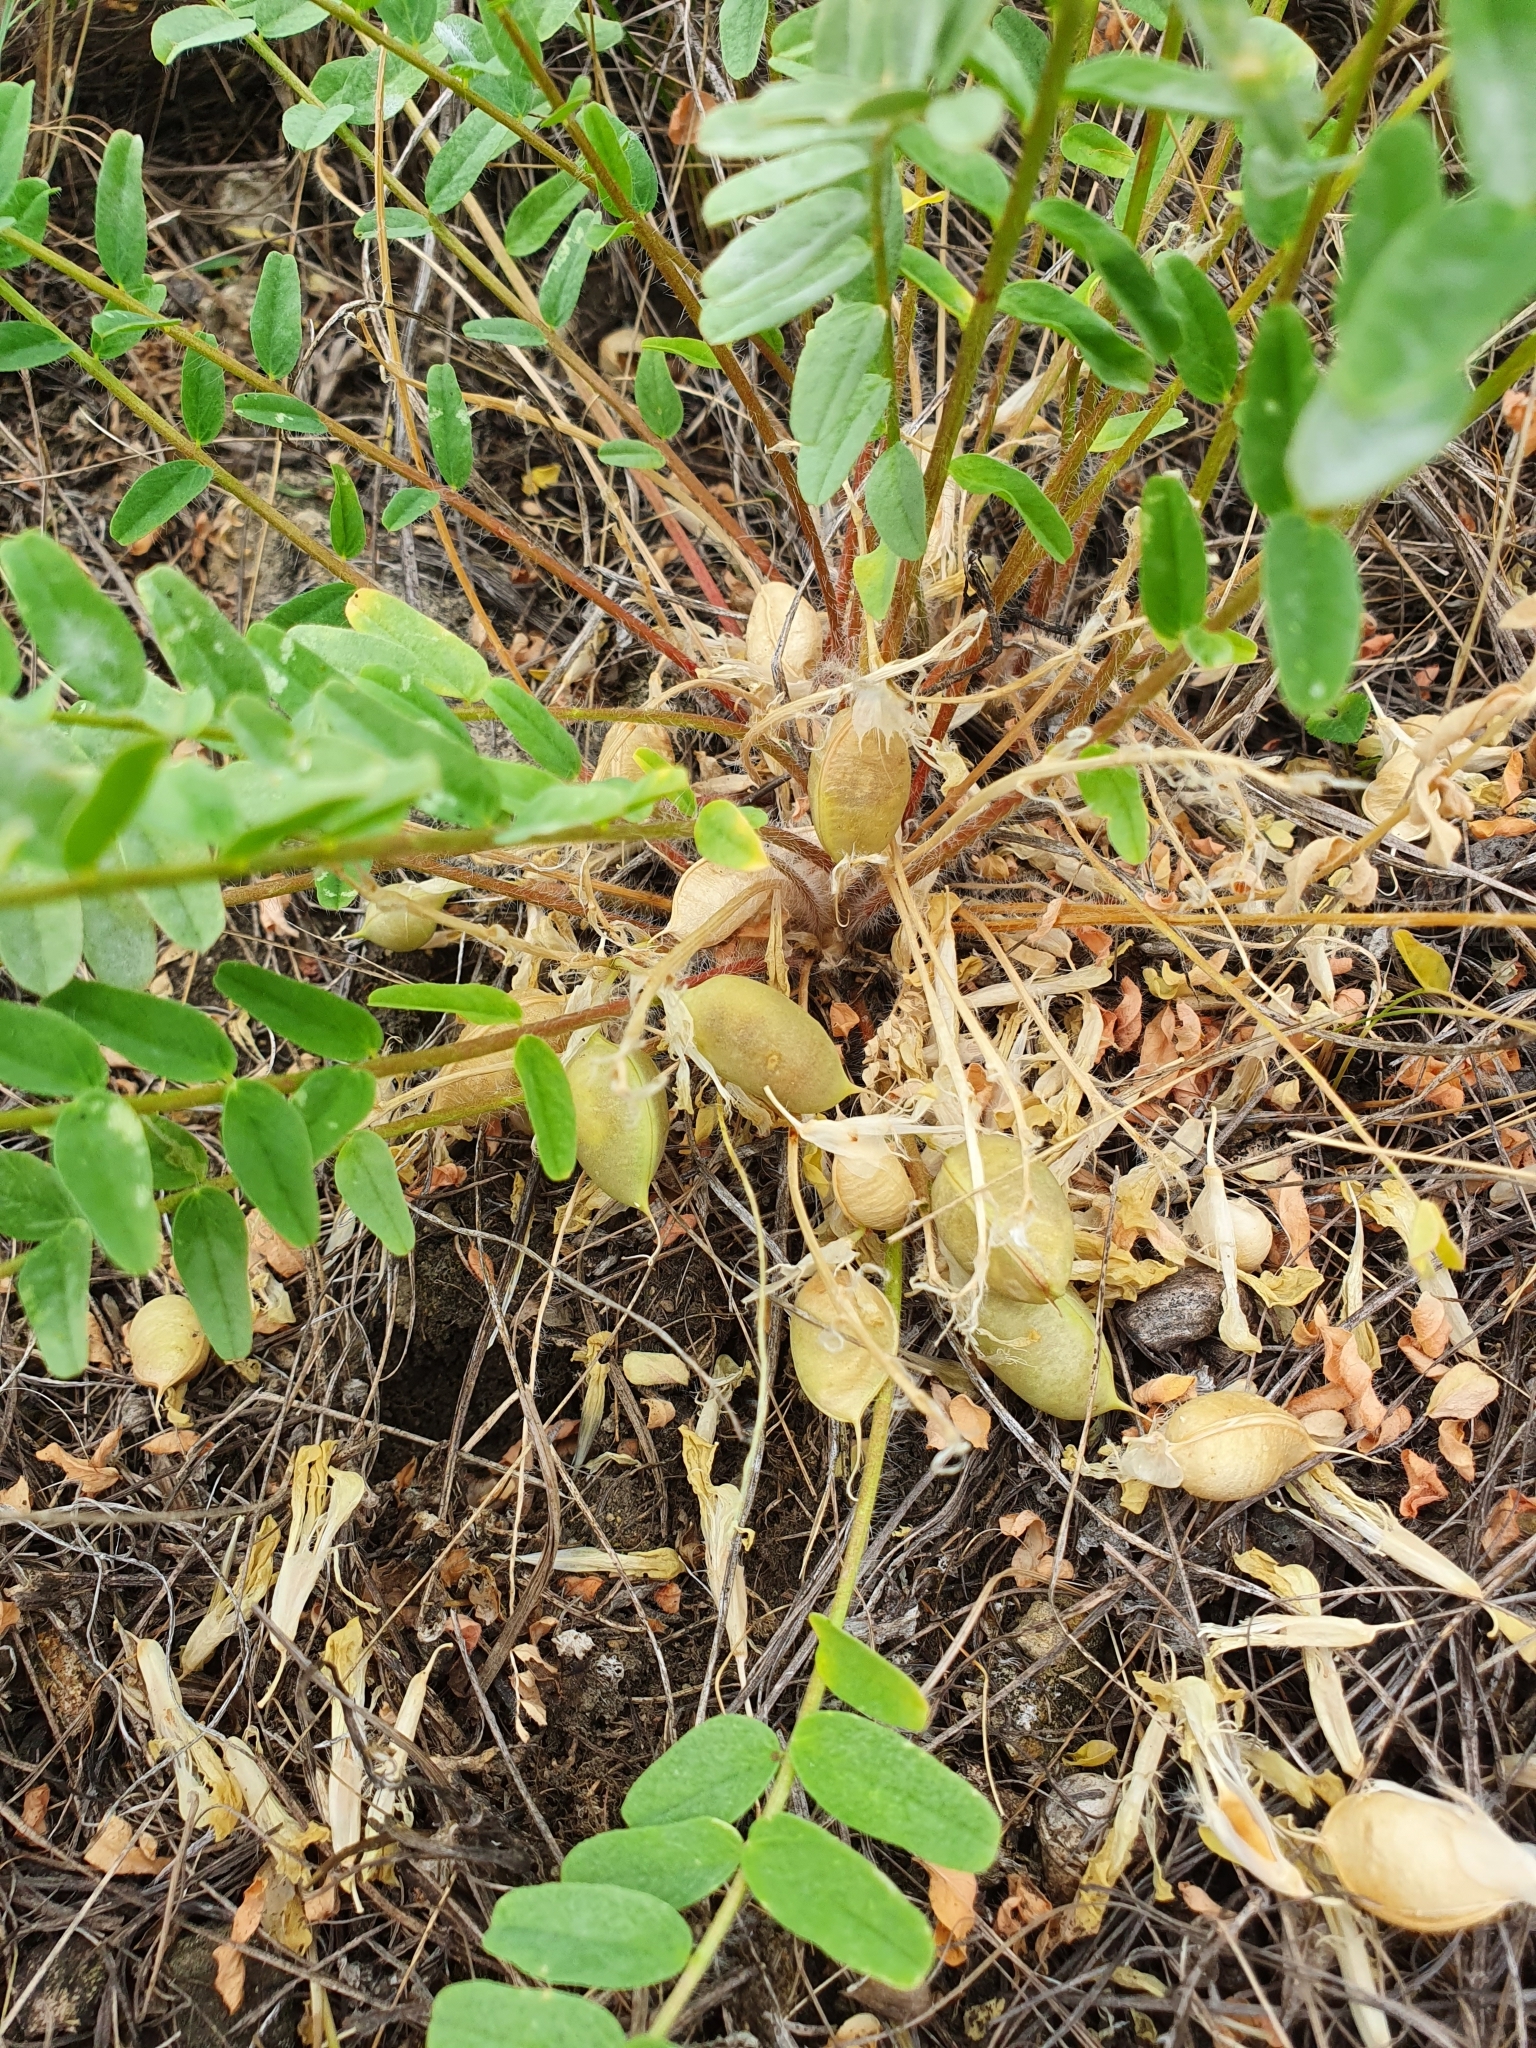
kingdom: Plantae
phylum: Tracheophyta
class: Magnoliopsida
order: Fabales
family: Fabaceae
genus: Astragalus
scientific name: Astragalus wolgensis
